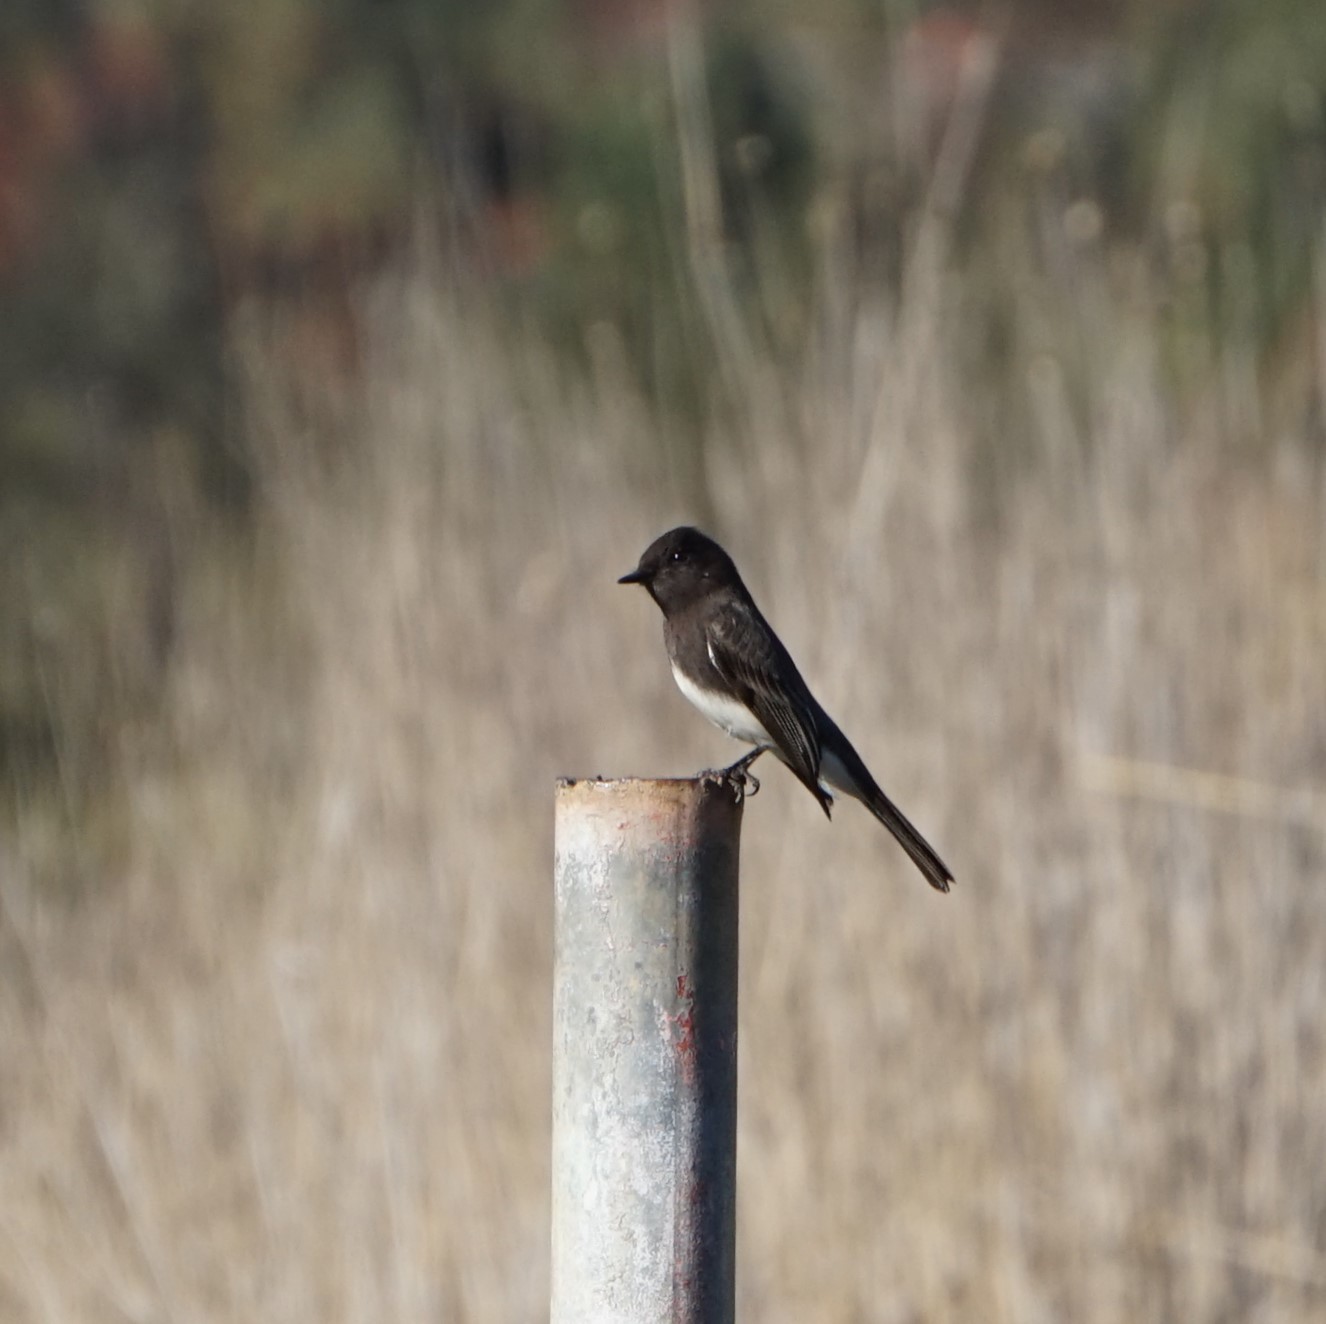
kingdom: Animalia
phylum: Chordata
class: Aves
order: Passeriformes
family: Tyrannidae
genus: Sayornis
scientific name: Sayornis nigricans
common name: Black phoebe
